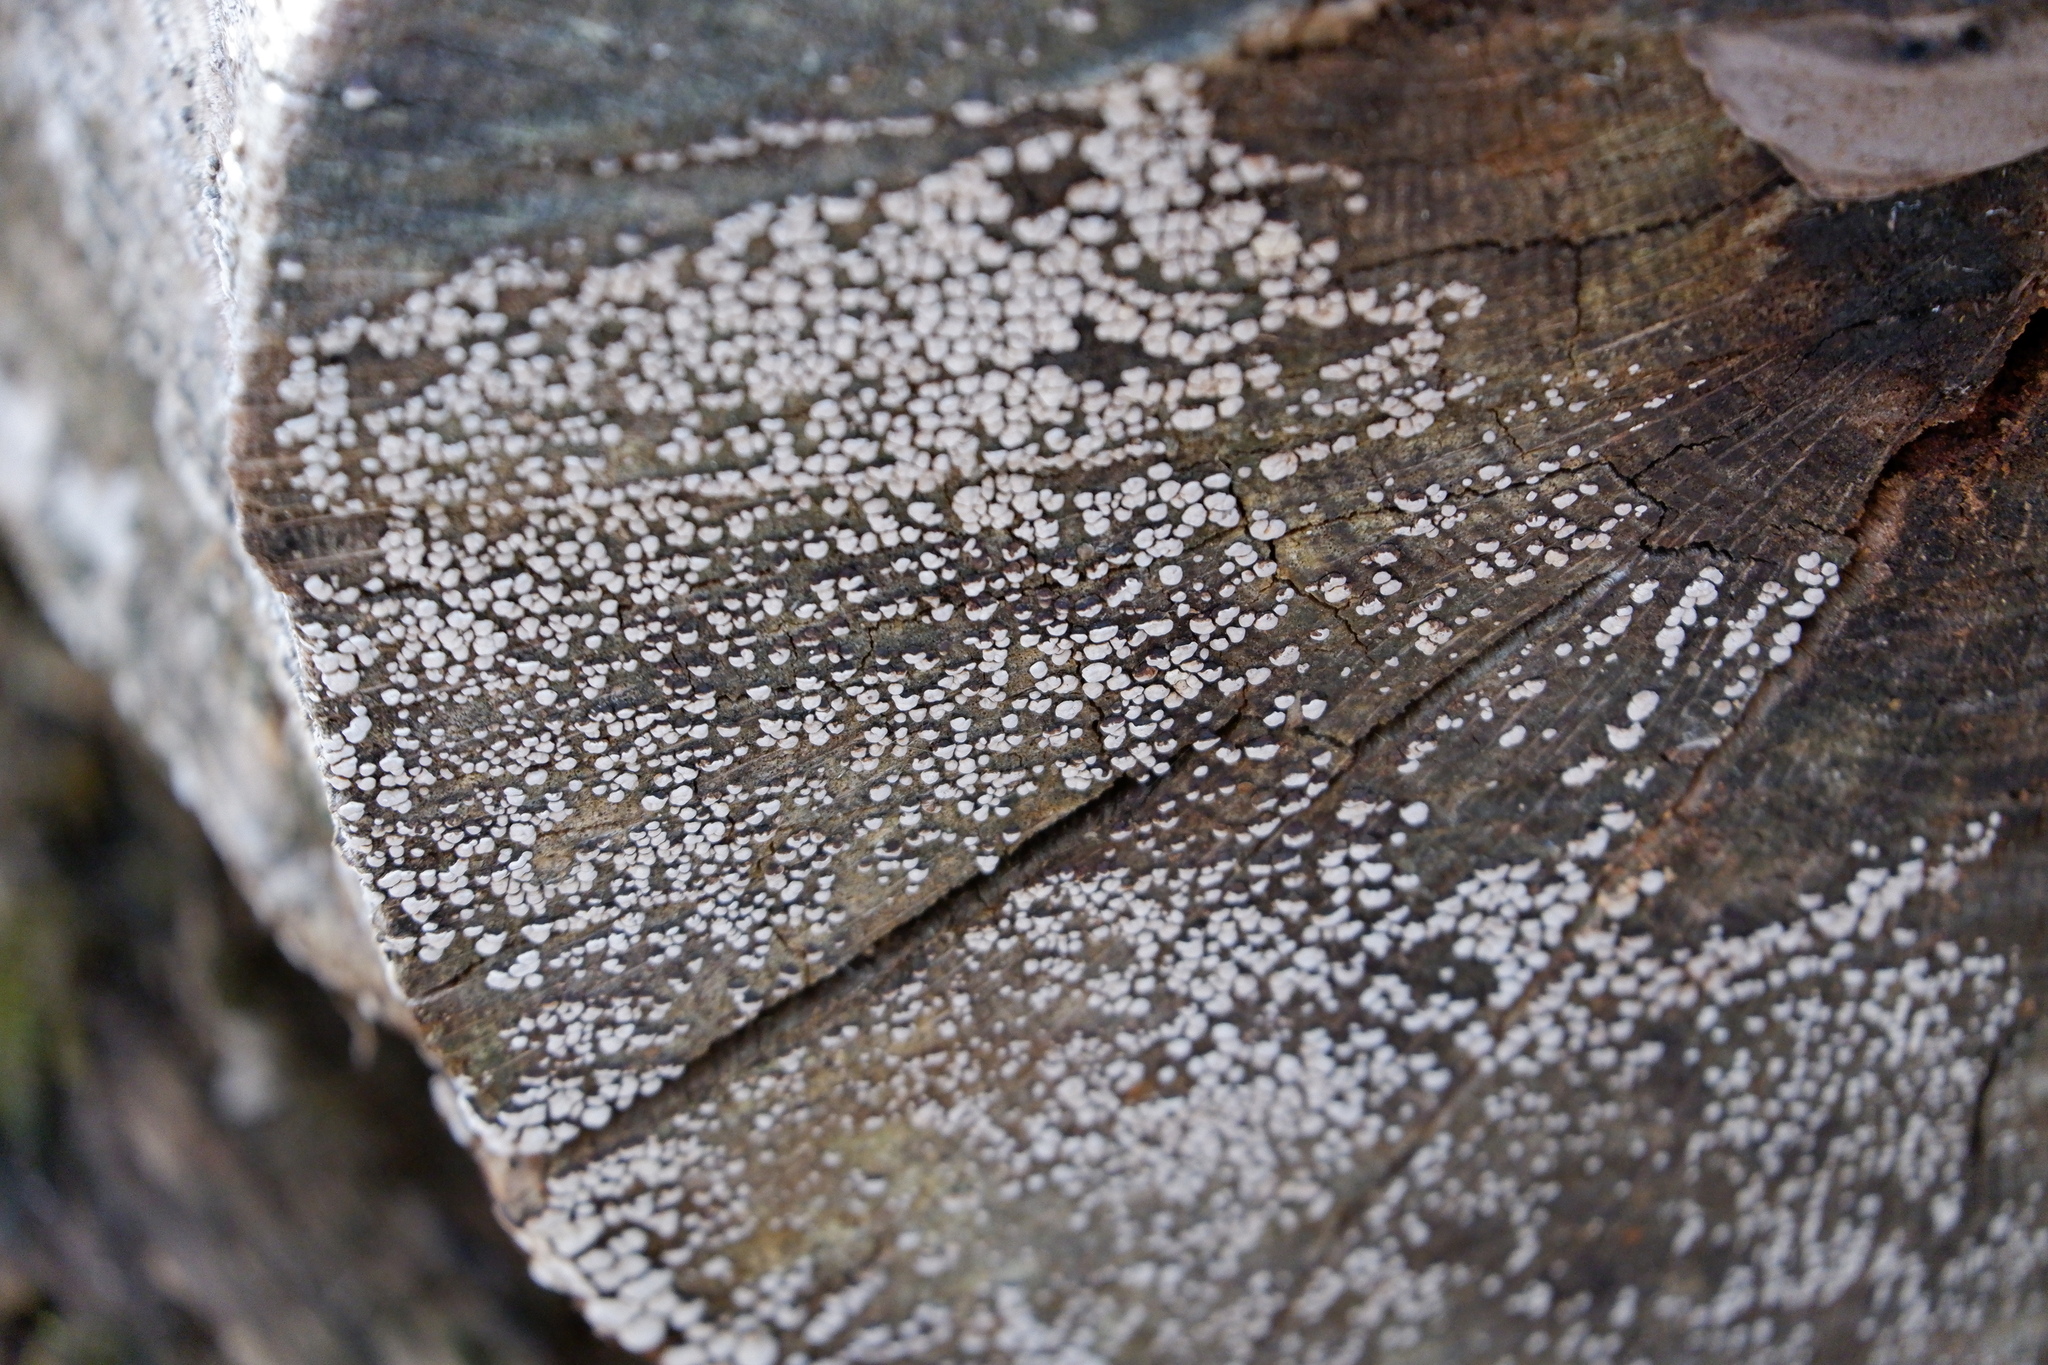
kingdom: Fungi
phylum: Basidiomycota
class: Agaricomycetes
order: Russulales
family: Stereaceae
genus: Xylobolus
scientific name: Xylobolus frustulatus
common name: Ceramic parchment
